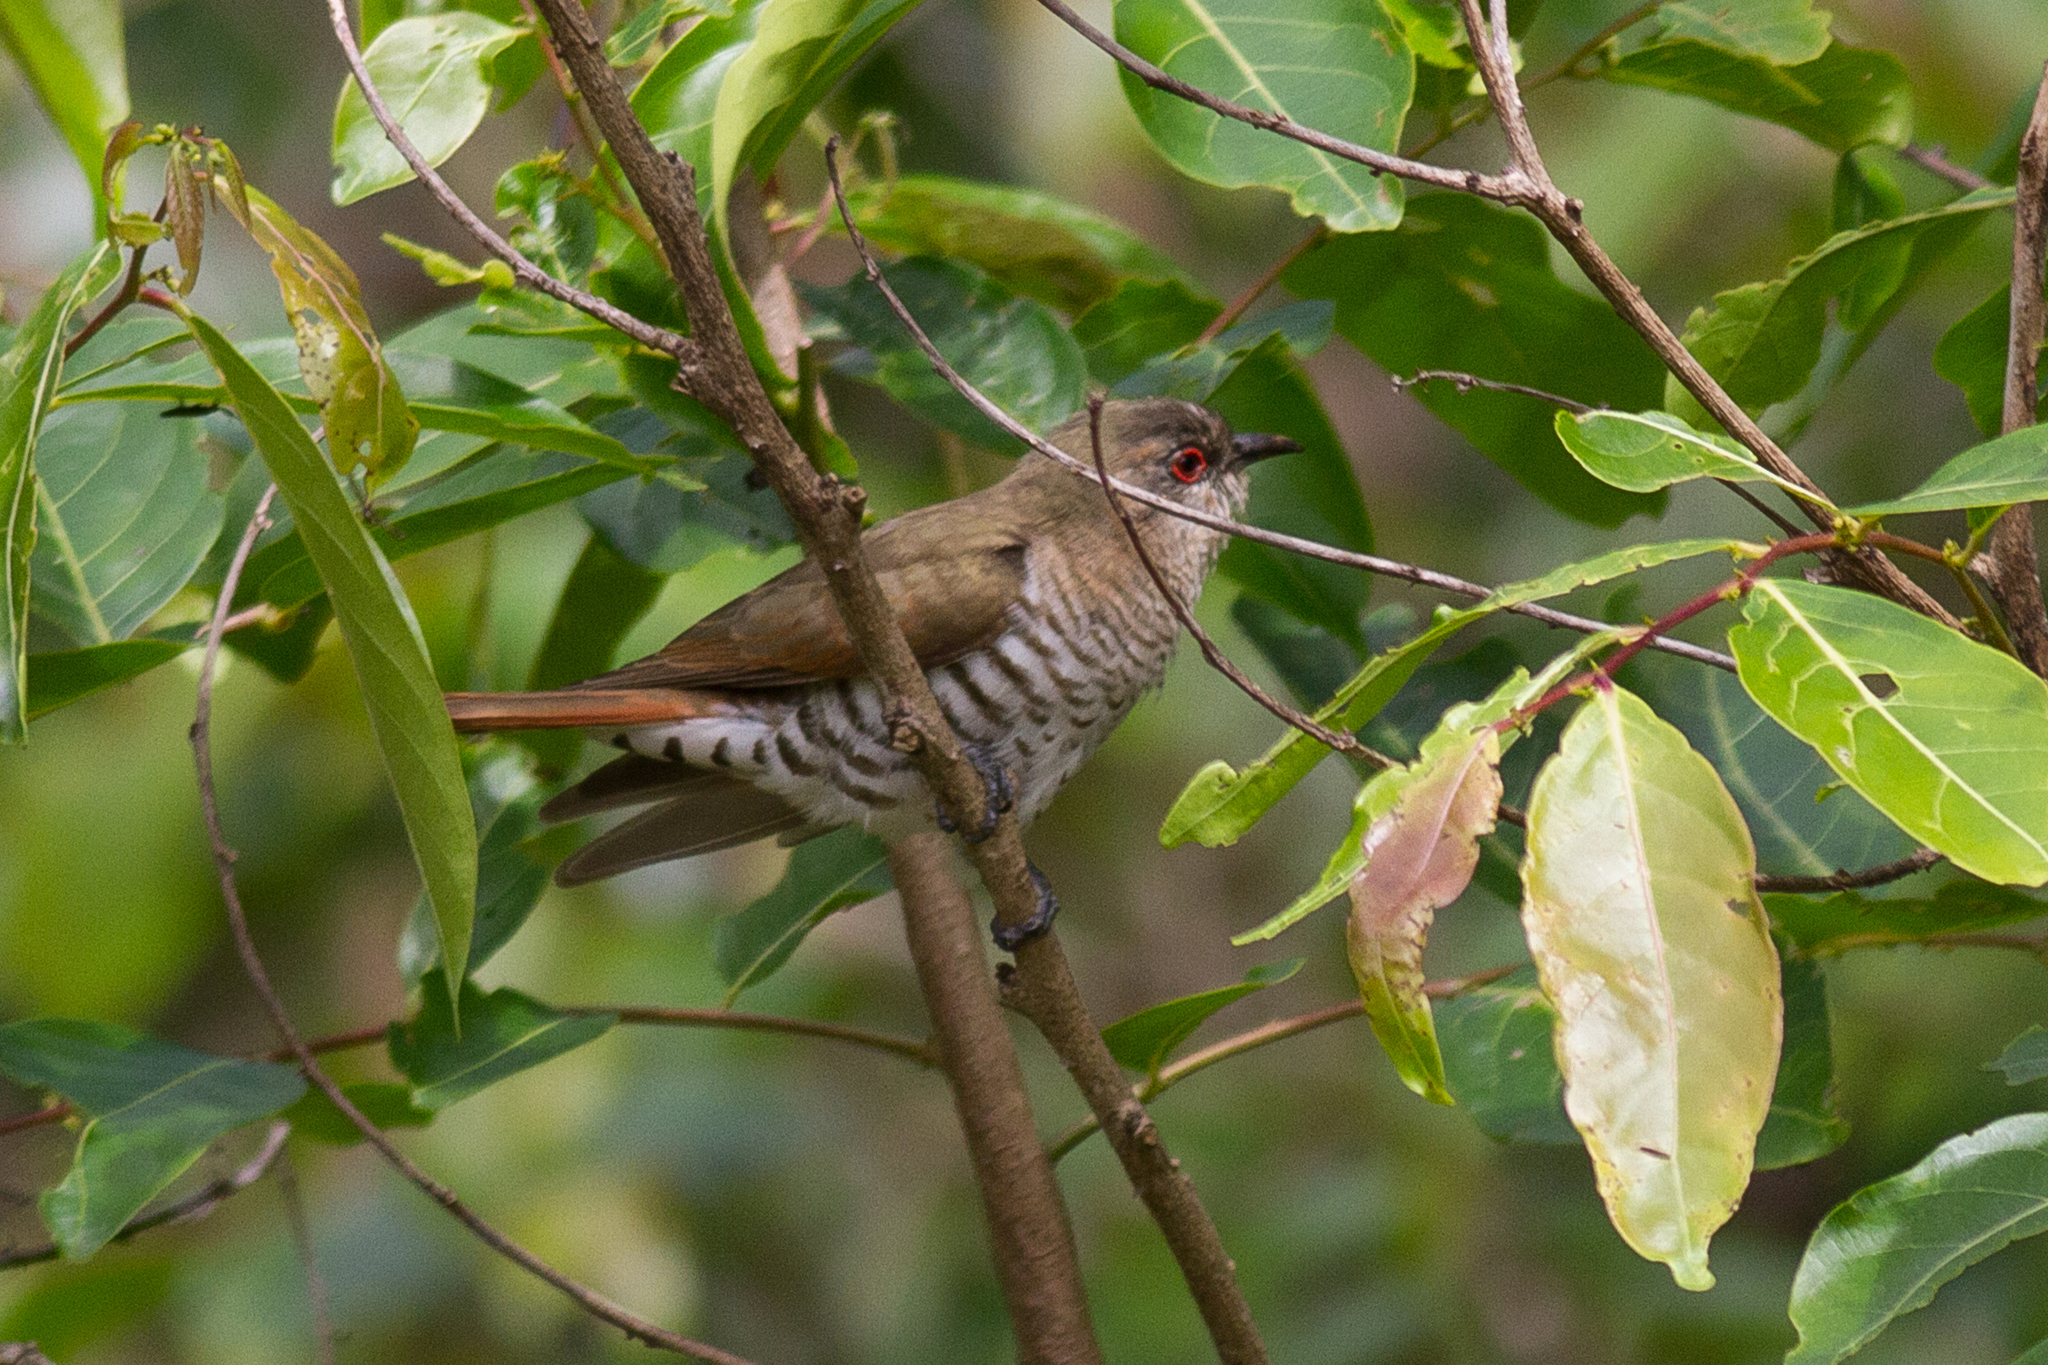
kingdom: Animalia
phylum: Chordata
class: Aves
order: Cuculiformes
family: Cuculidae
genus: Chrysococcyx
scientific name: Chrysococcyx minutillus
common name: Little bronze cuckoo
